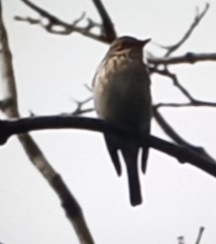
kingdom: Animalia
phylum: Chordata
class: Aves
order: Passeriformes
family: Muscicapidae
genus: Muscicapa
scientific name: Muscicapa striata
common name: Spotted flycatcher
